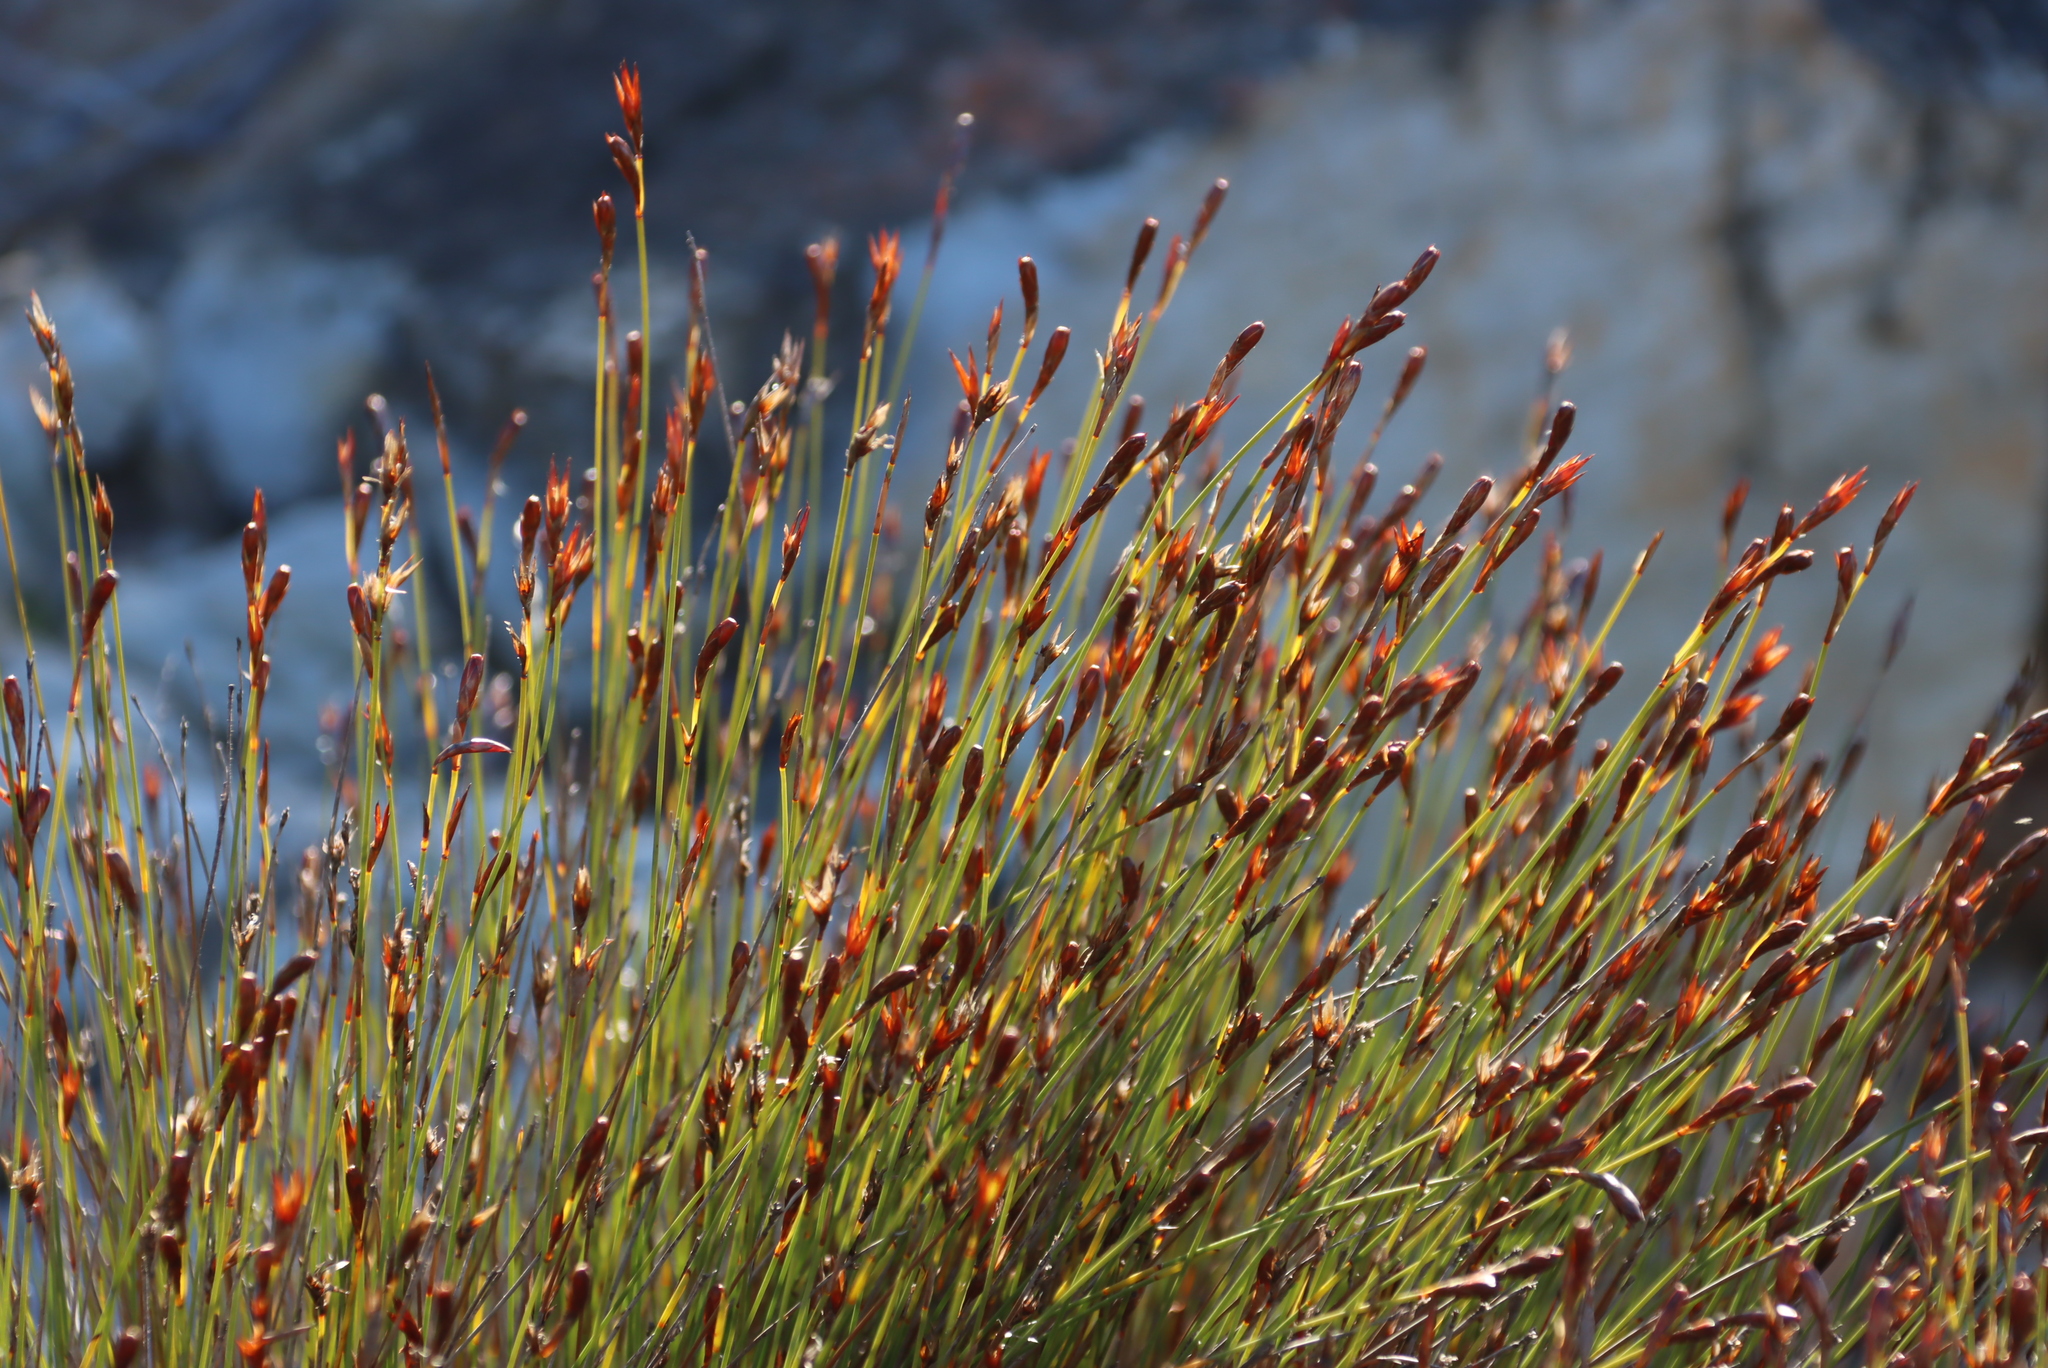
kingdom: Plantae
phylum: Tracheophyta
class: Liliopsida
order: Poales
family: Restionaceae
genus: Hypodiscus
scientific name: Hypodiscus striatus
